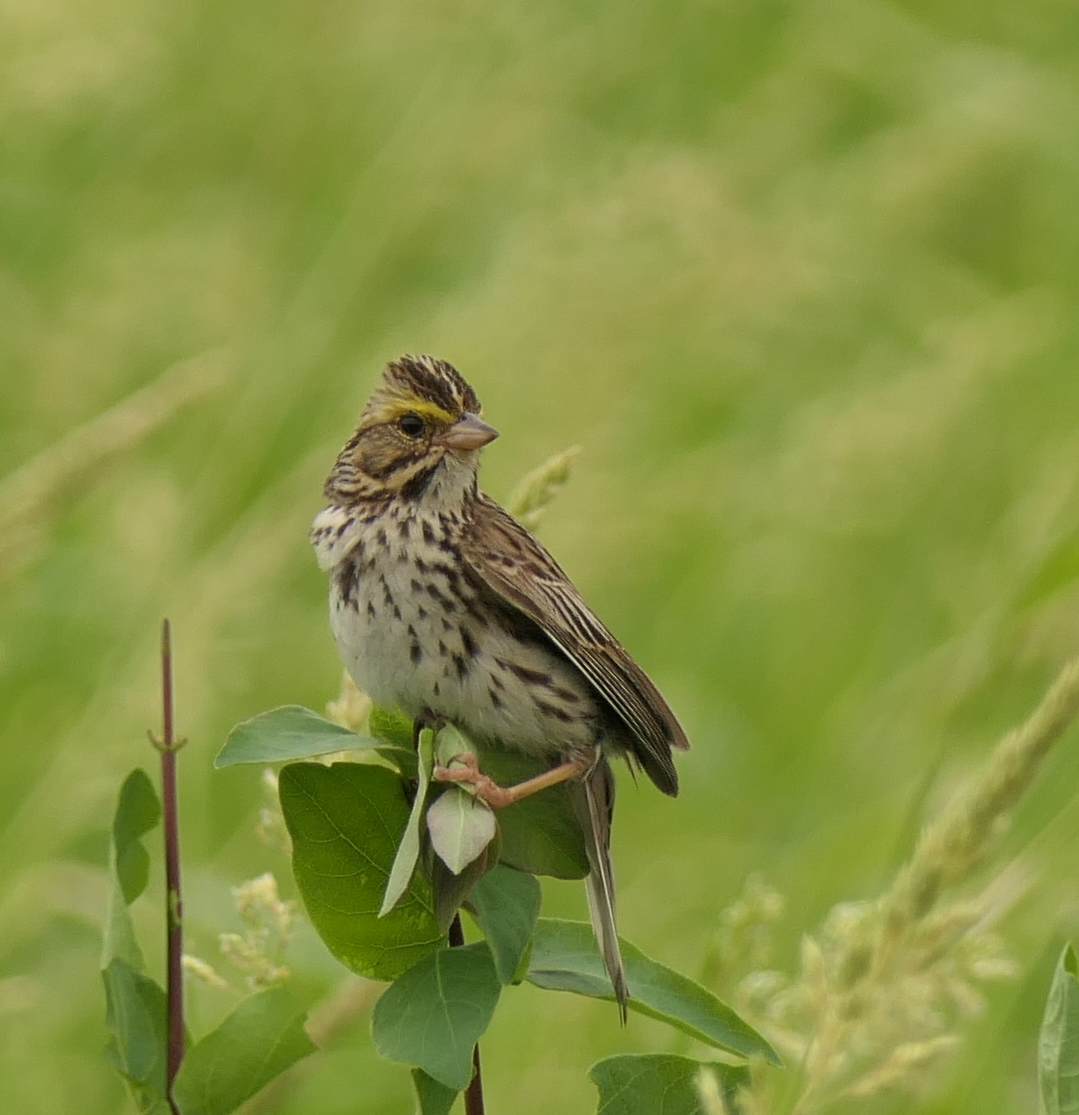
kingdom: Animalia
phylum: Chordata
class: Aves
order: Passeriformes
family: Passerellidae
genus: Passerculus
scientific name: Passerculus sandwichensis
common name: Savannah sparrow
